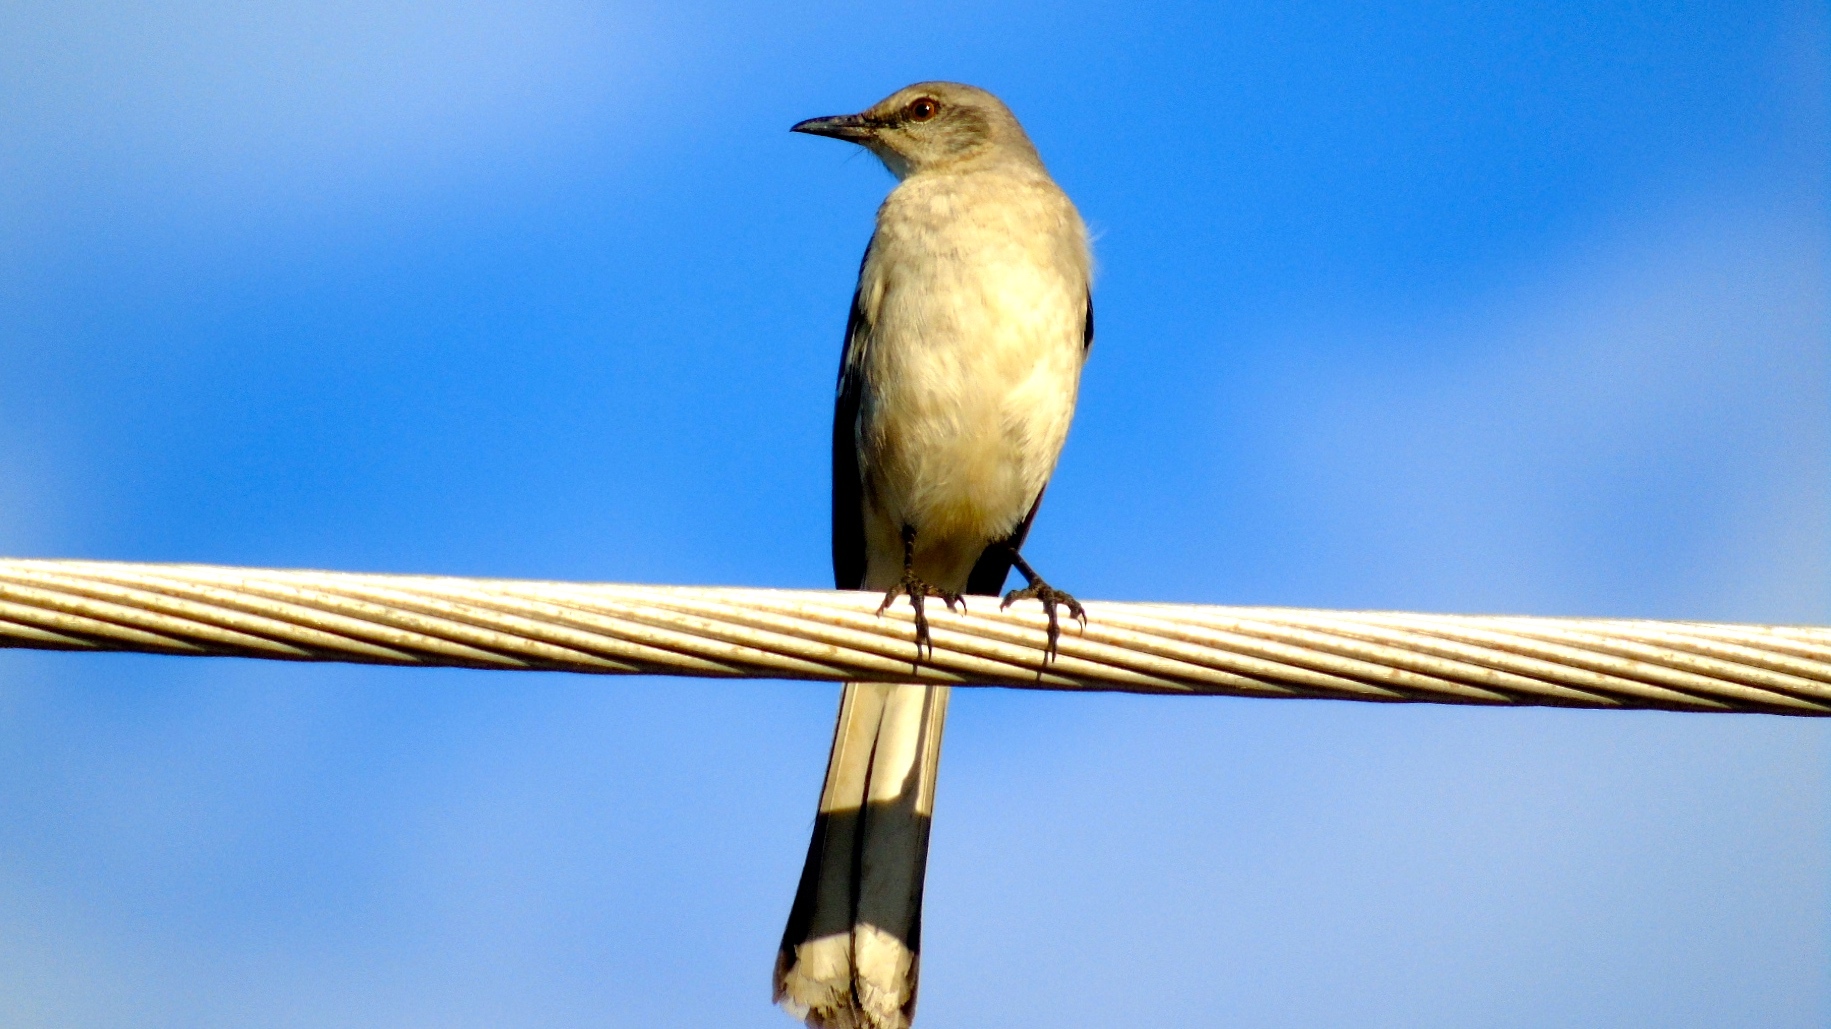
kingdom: Animalia
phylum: Chordata
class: Aves
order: Passeriformes
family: Mimidae
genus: Mimus
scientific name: Mimus polyglottos
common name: Northern mockingbird
